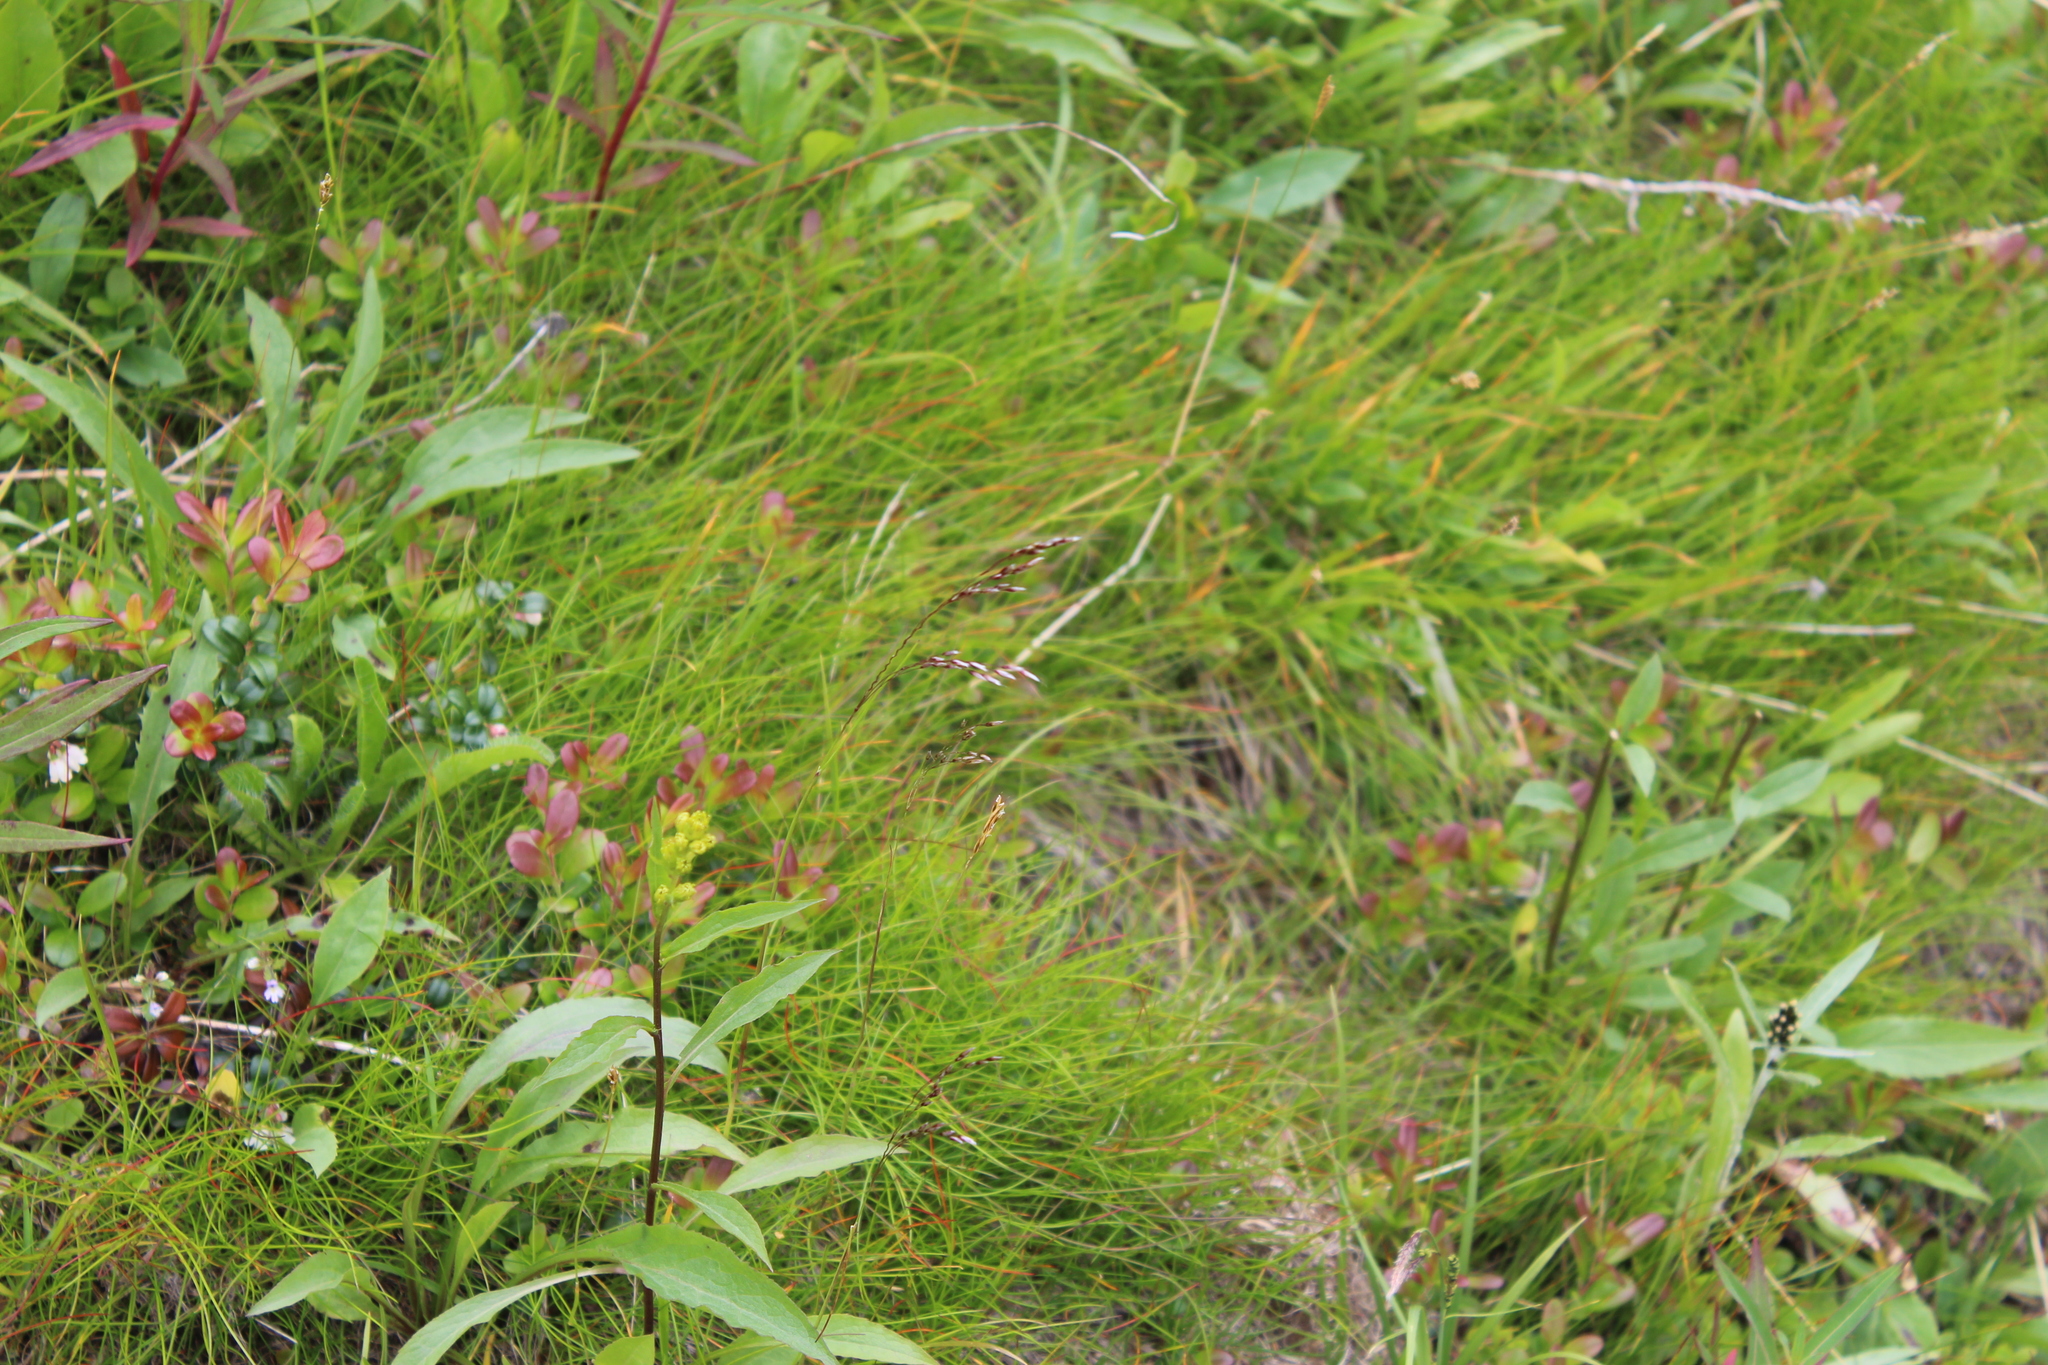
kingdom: Plantae
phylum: Tracheophyta
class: Liliopsida
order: Poales
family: Poaceae
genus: Avenella
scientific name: Avenella flexuosa
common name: Wavy hairgrass
